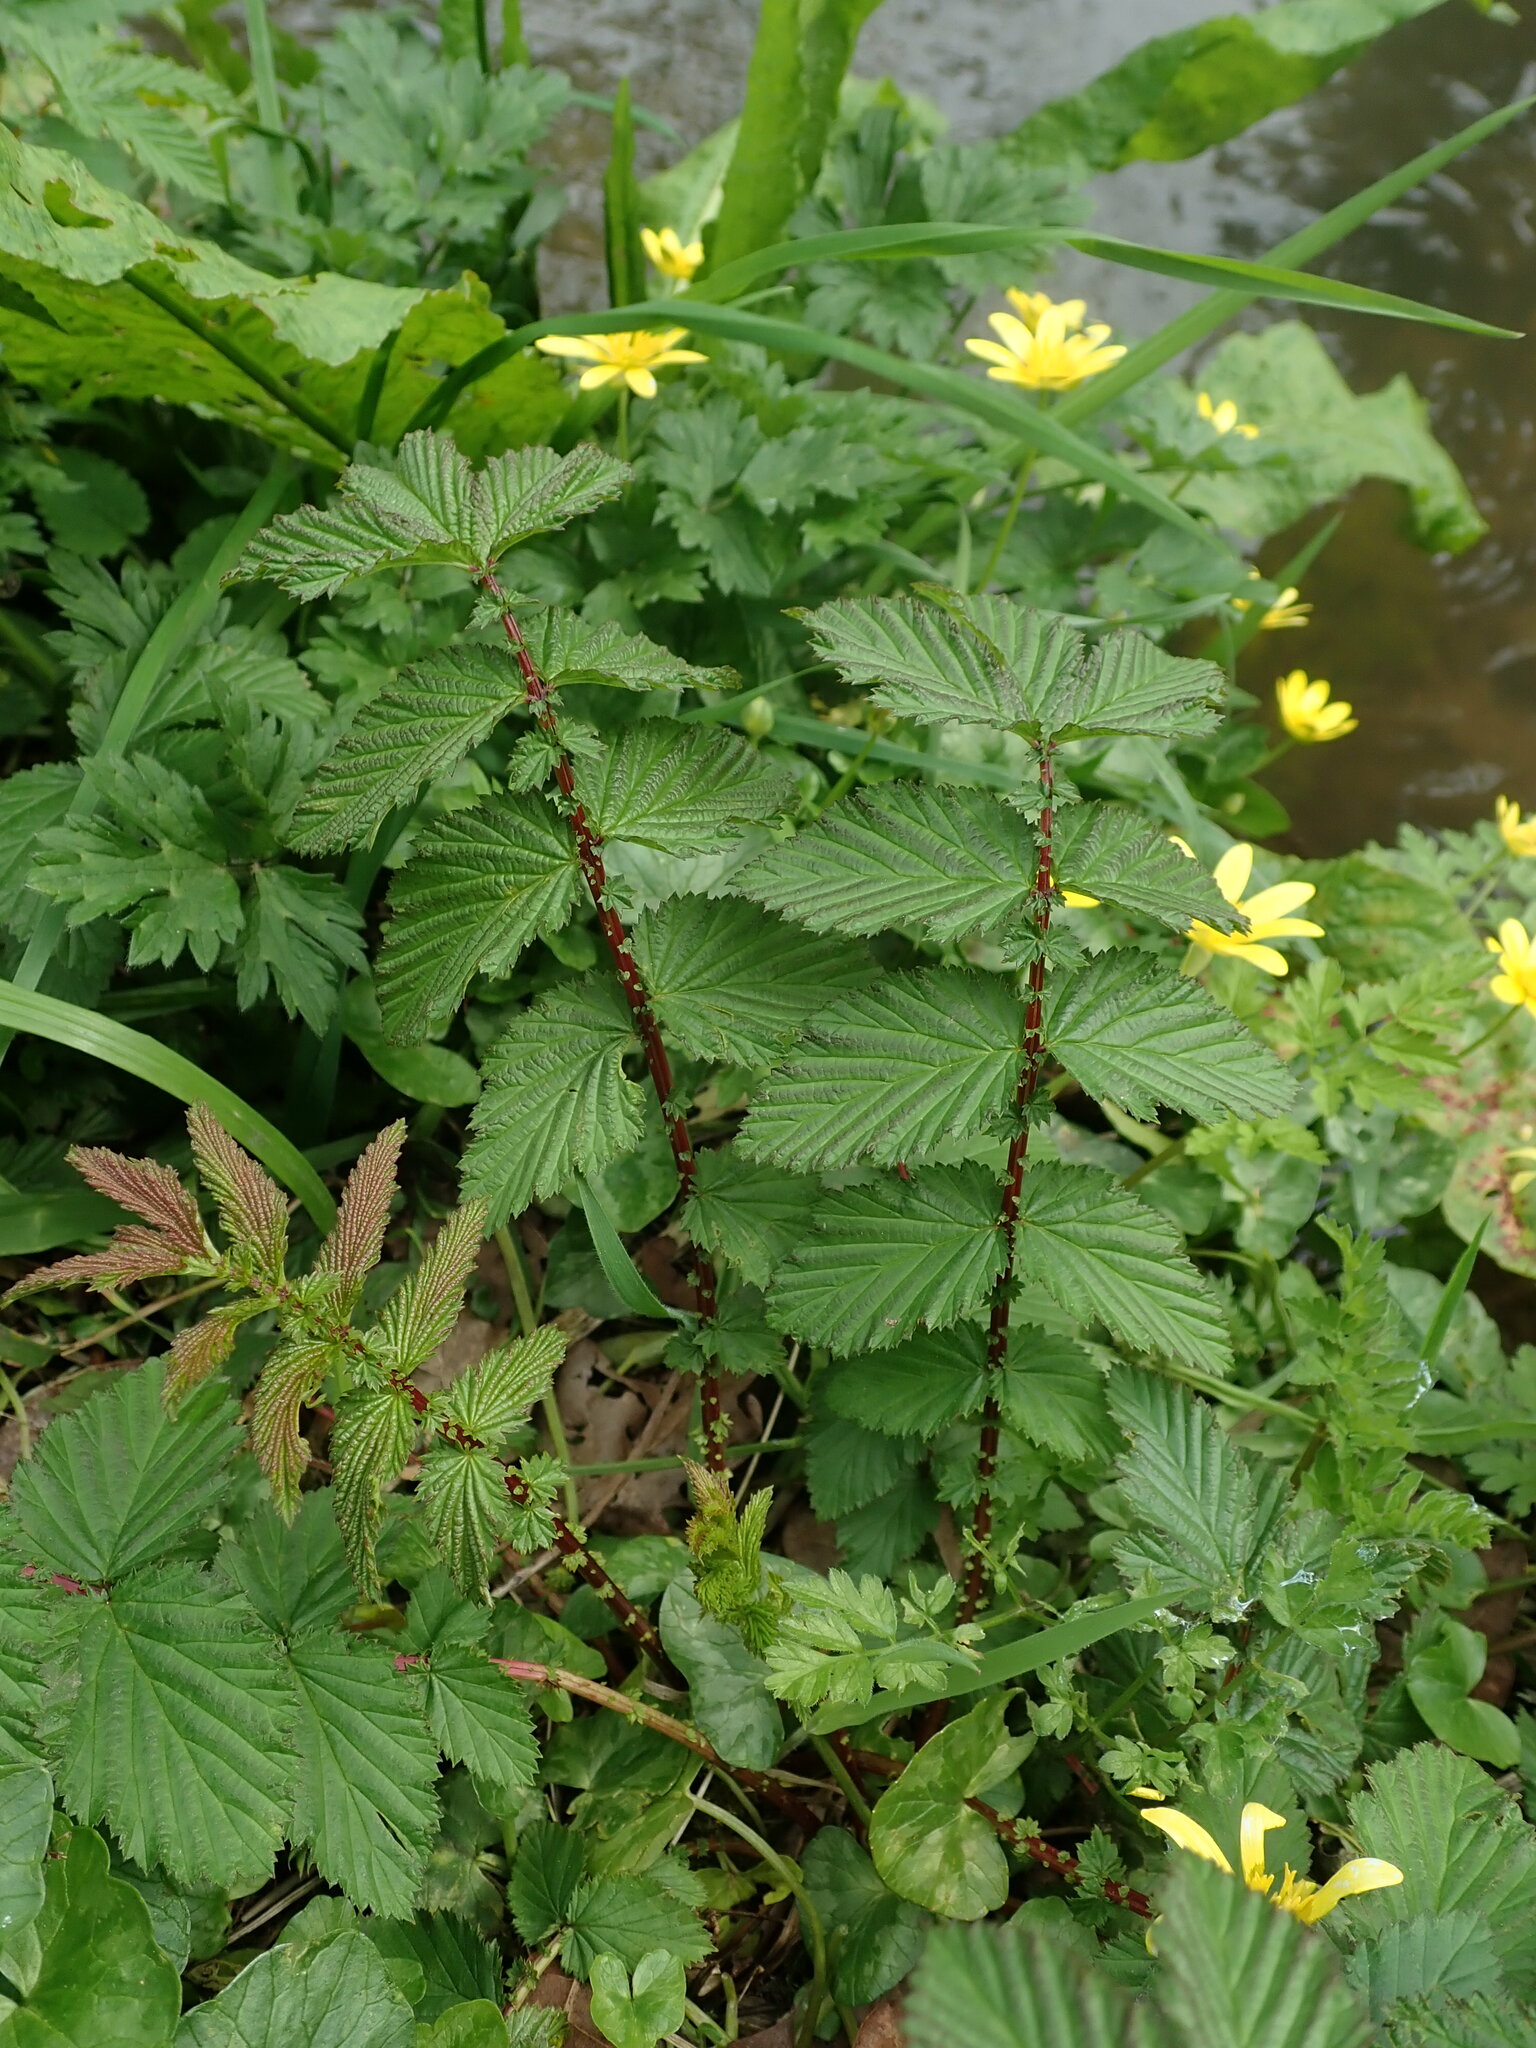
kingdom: Plantae
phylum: Tracheophyta
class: Magnoliopsida
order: Rosales
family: Rosaceae
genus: Filipendula
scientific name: Filipendula ulmaria
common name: Meadowsweet
